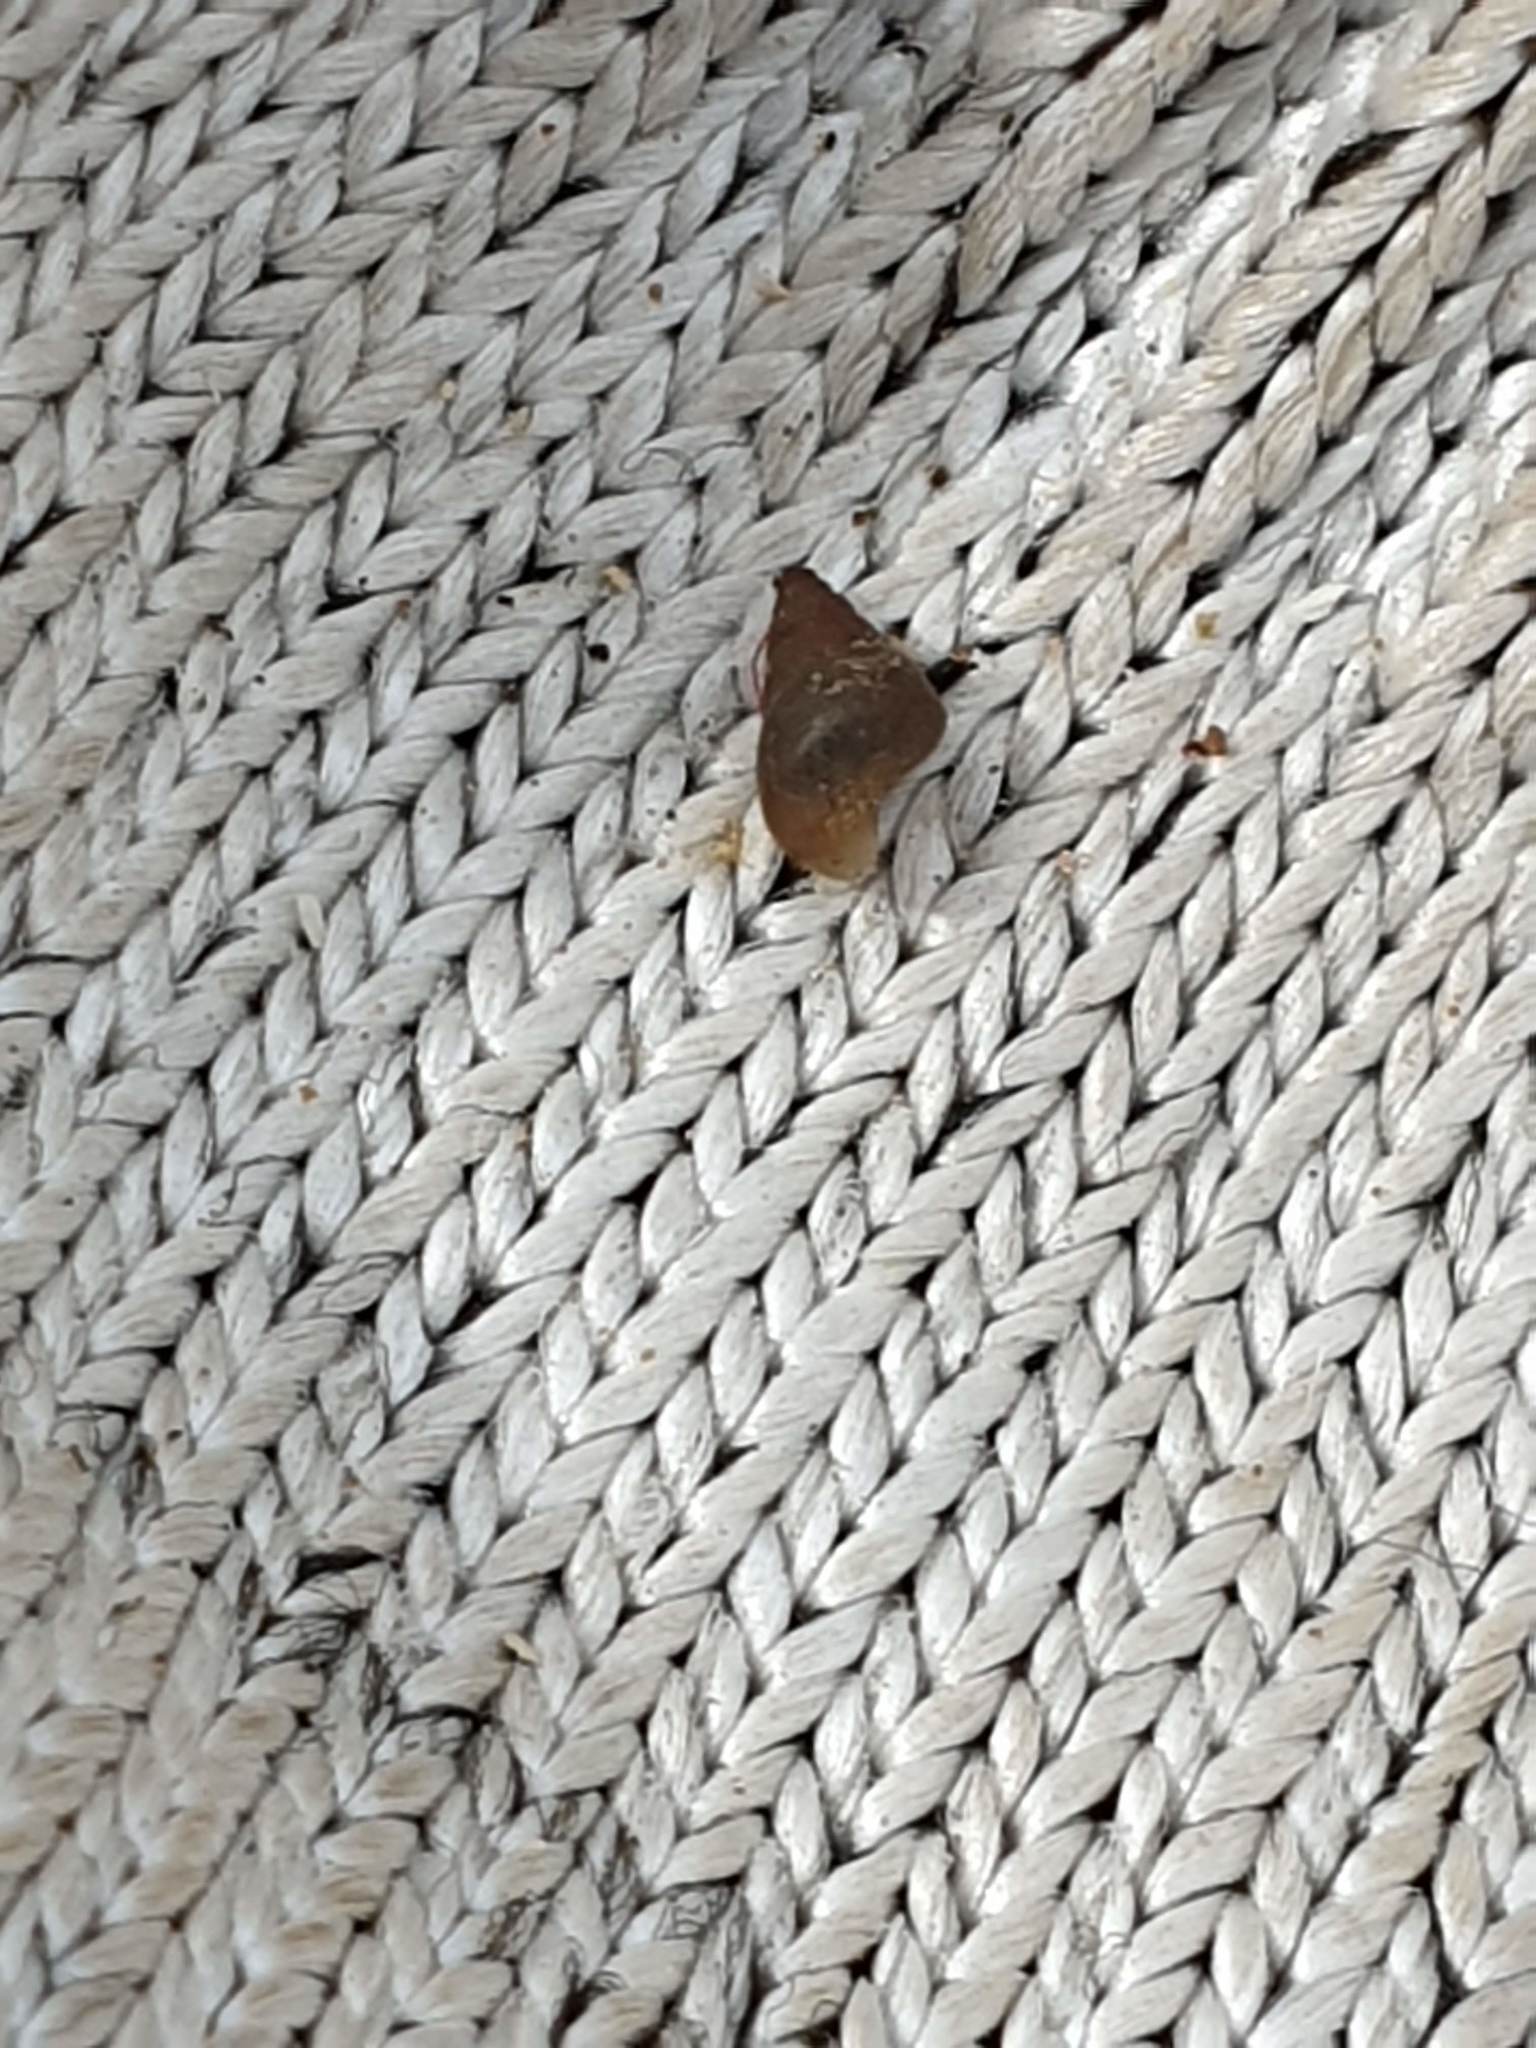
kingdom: Animalia
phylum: Mollusca
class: Gastropoda
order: Littorinimorpha
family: Tateidae
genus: Potamopyrgus
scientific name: Potamopyrgus antipodarum
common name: Jenkins' spire snail
